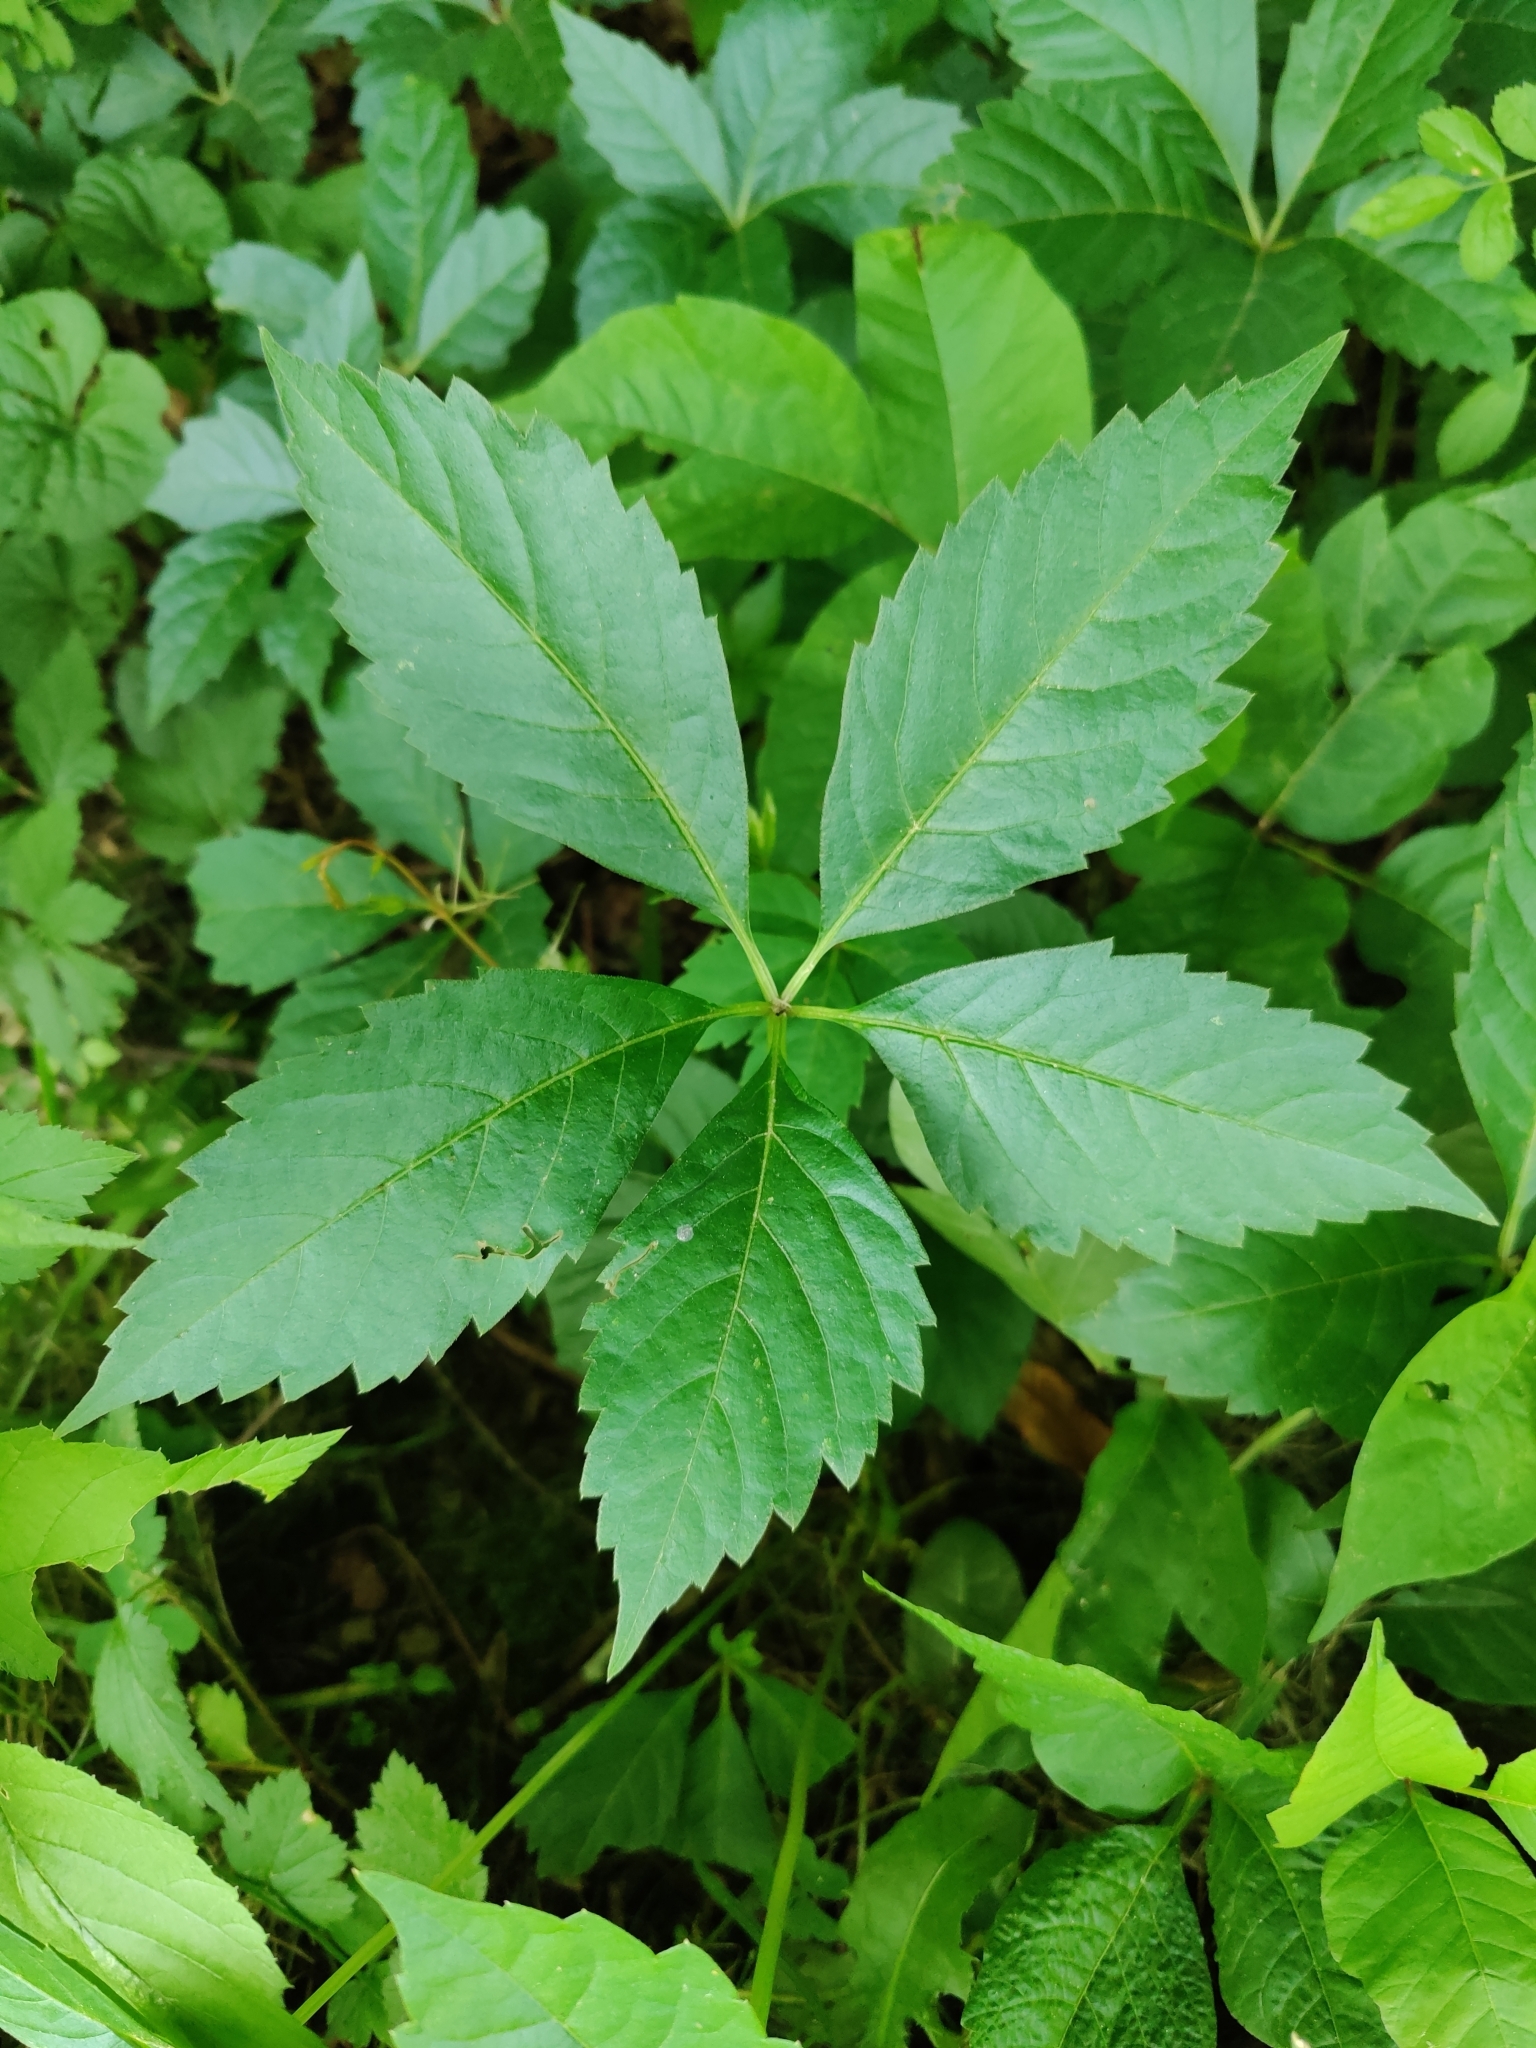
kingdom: Plantae
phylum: Tracheophyta
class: Magnoliopsida
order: Vitales
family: Vitaceae
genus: Parthenocissus
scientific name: Parthenocissus quinquefolia
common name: Virginia-creeper
